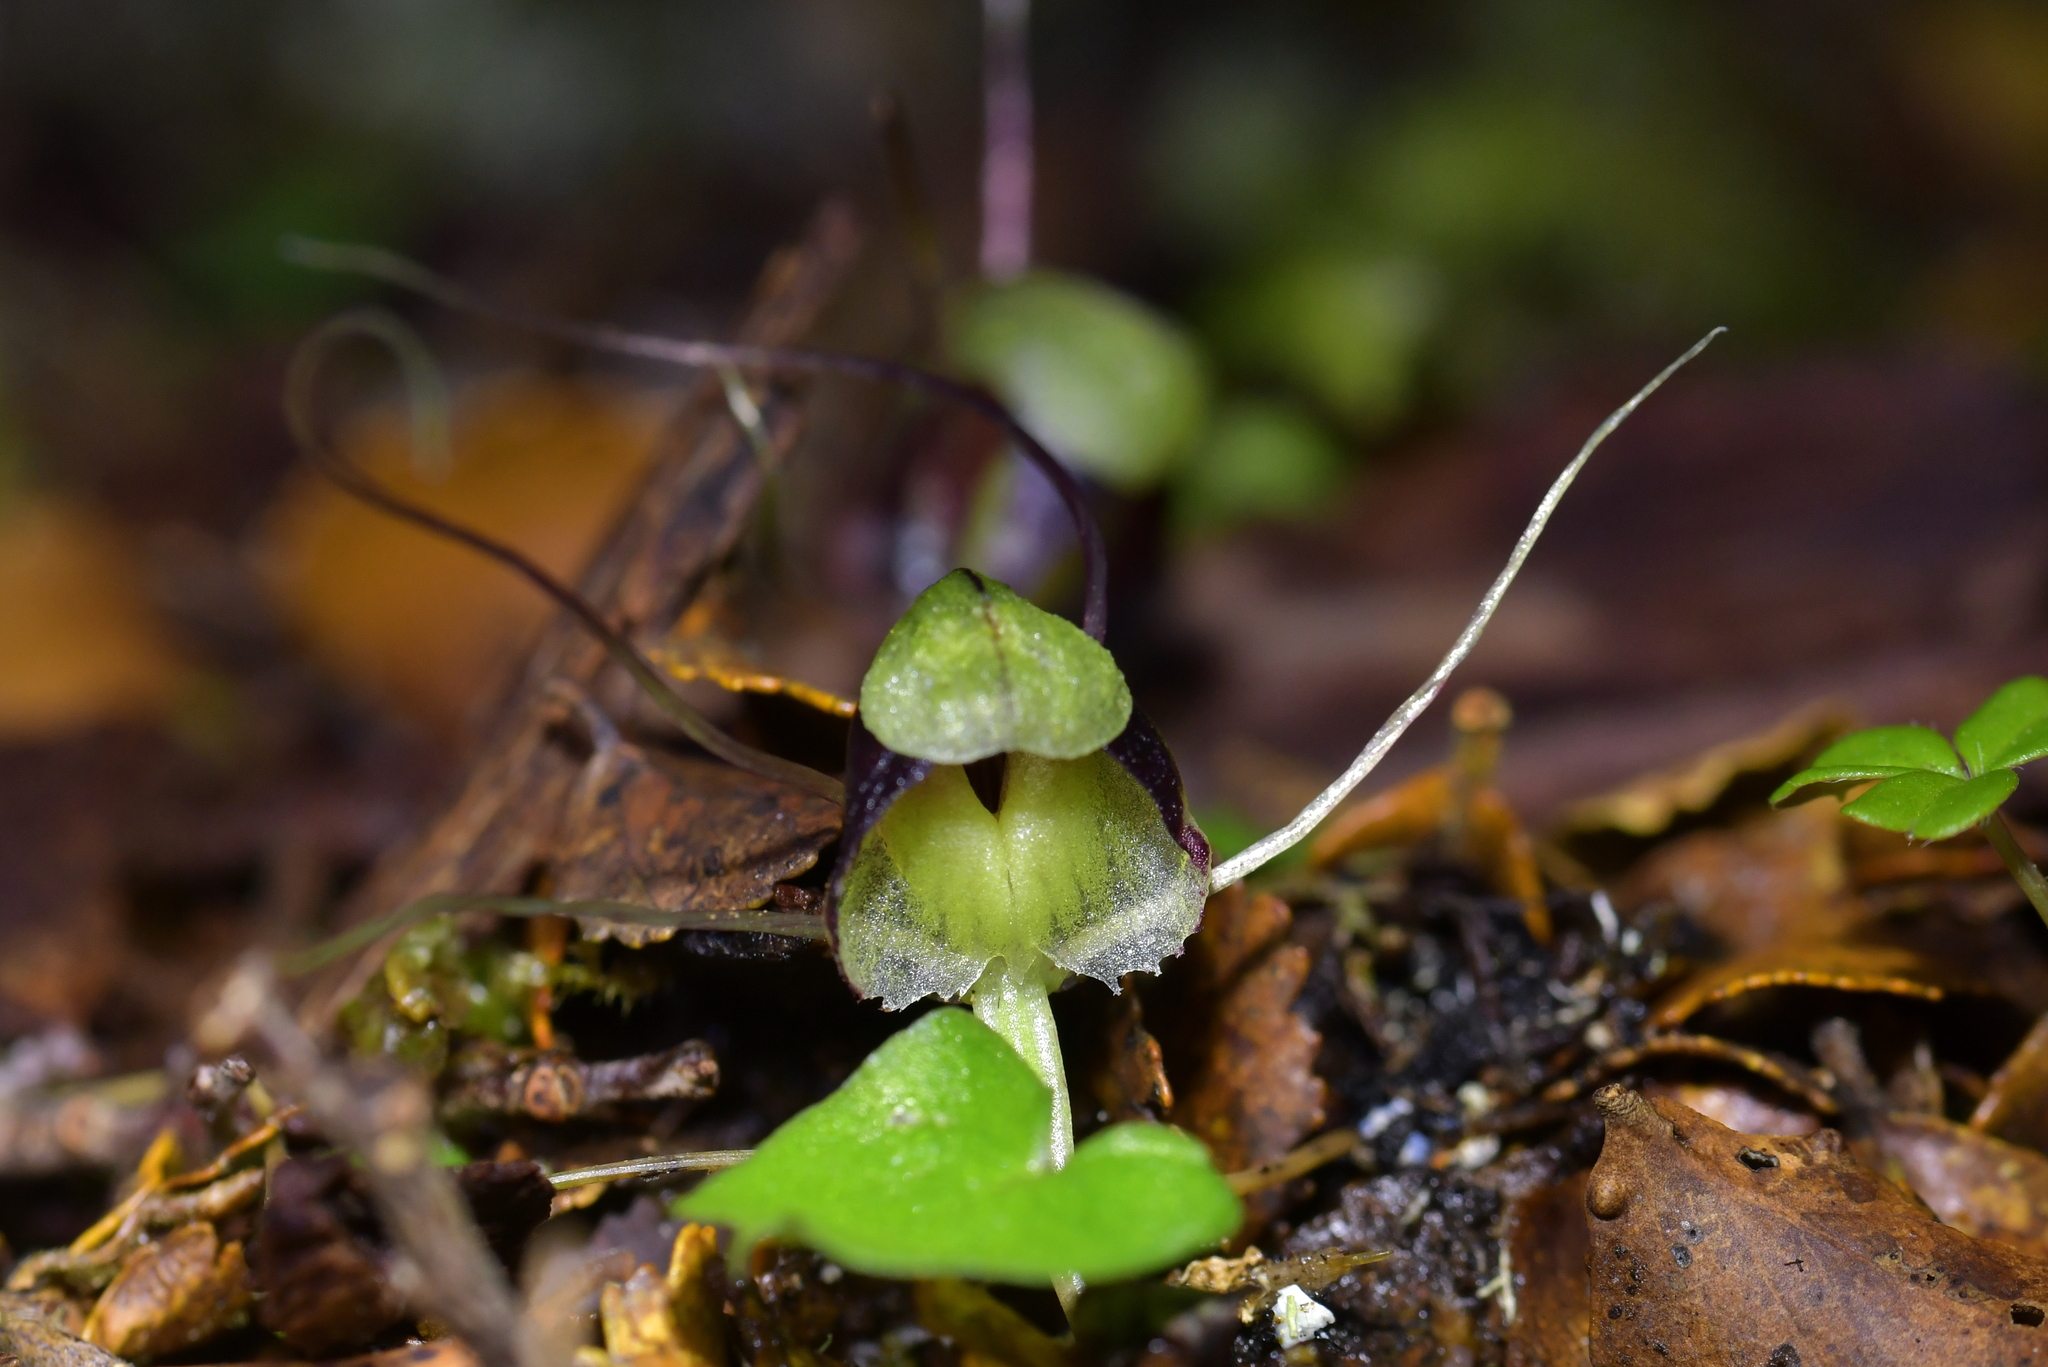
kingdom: Plantae
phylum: Tracheophyta
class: Liliopsida
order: Asparagales
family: Orchidaceae
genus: Corybas
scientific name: Corybas vitreus
